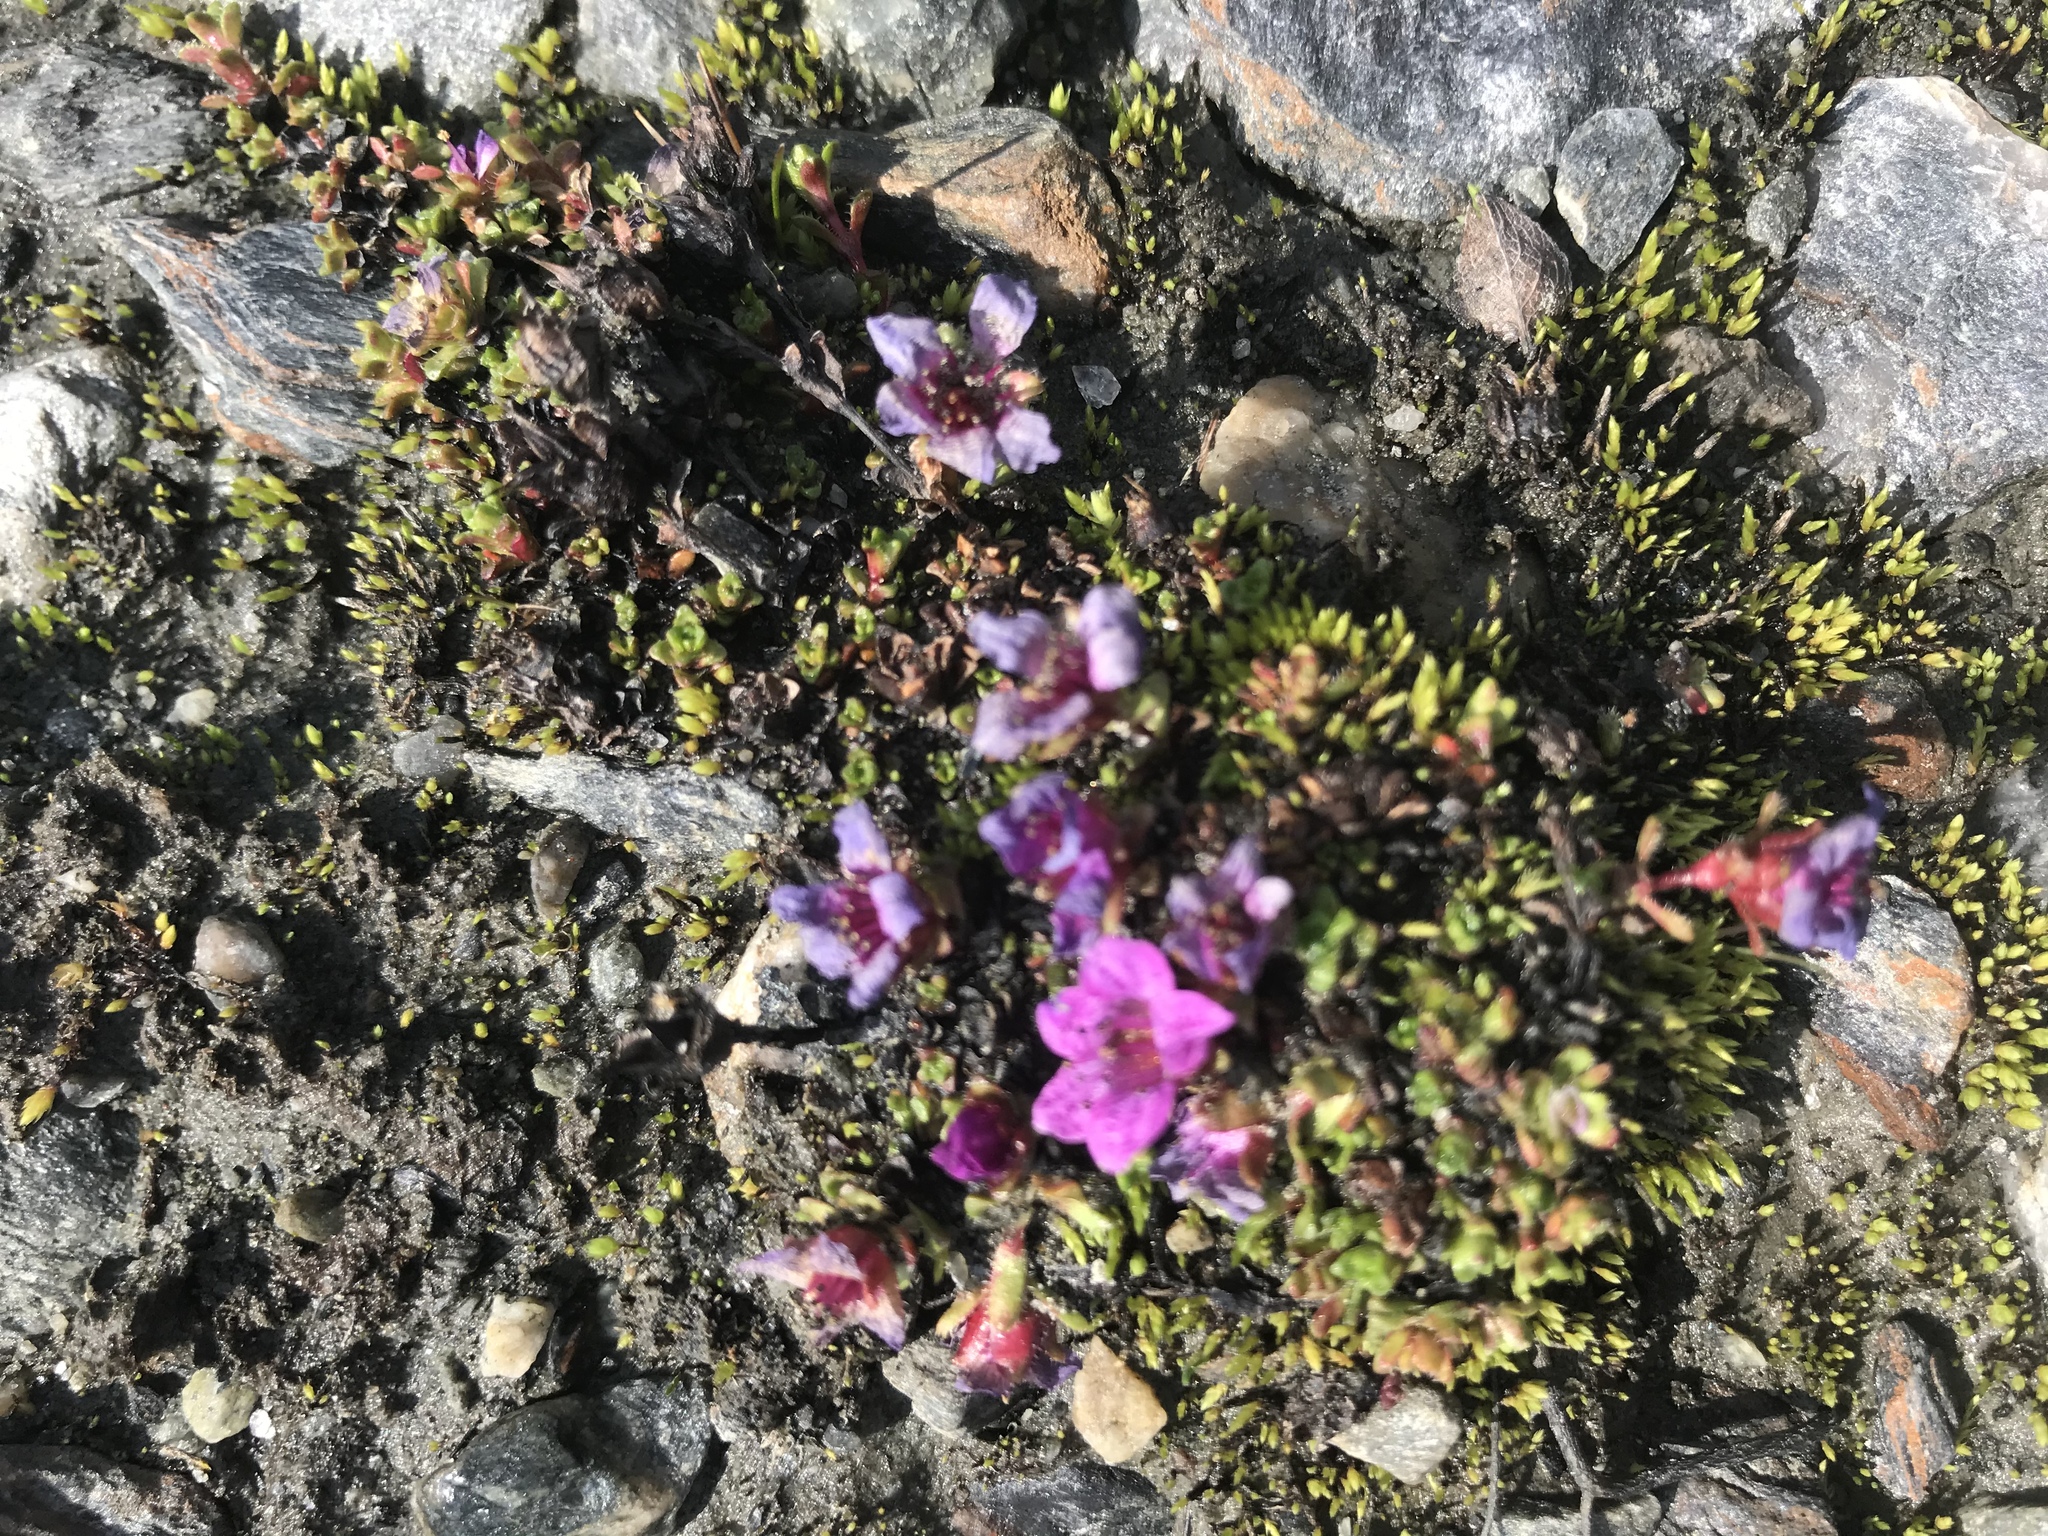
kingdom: Plantae
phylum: Tracheophyta
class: Magnoliopsida
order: Saxifragales
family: Saxifragaceae
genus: Saxifraga
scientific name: Saxifraga oppositifolia
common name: Purple saxifrage
